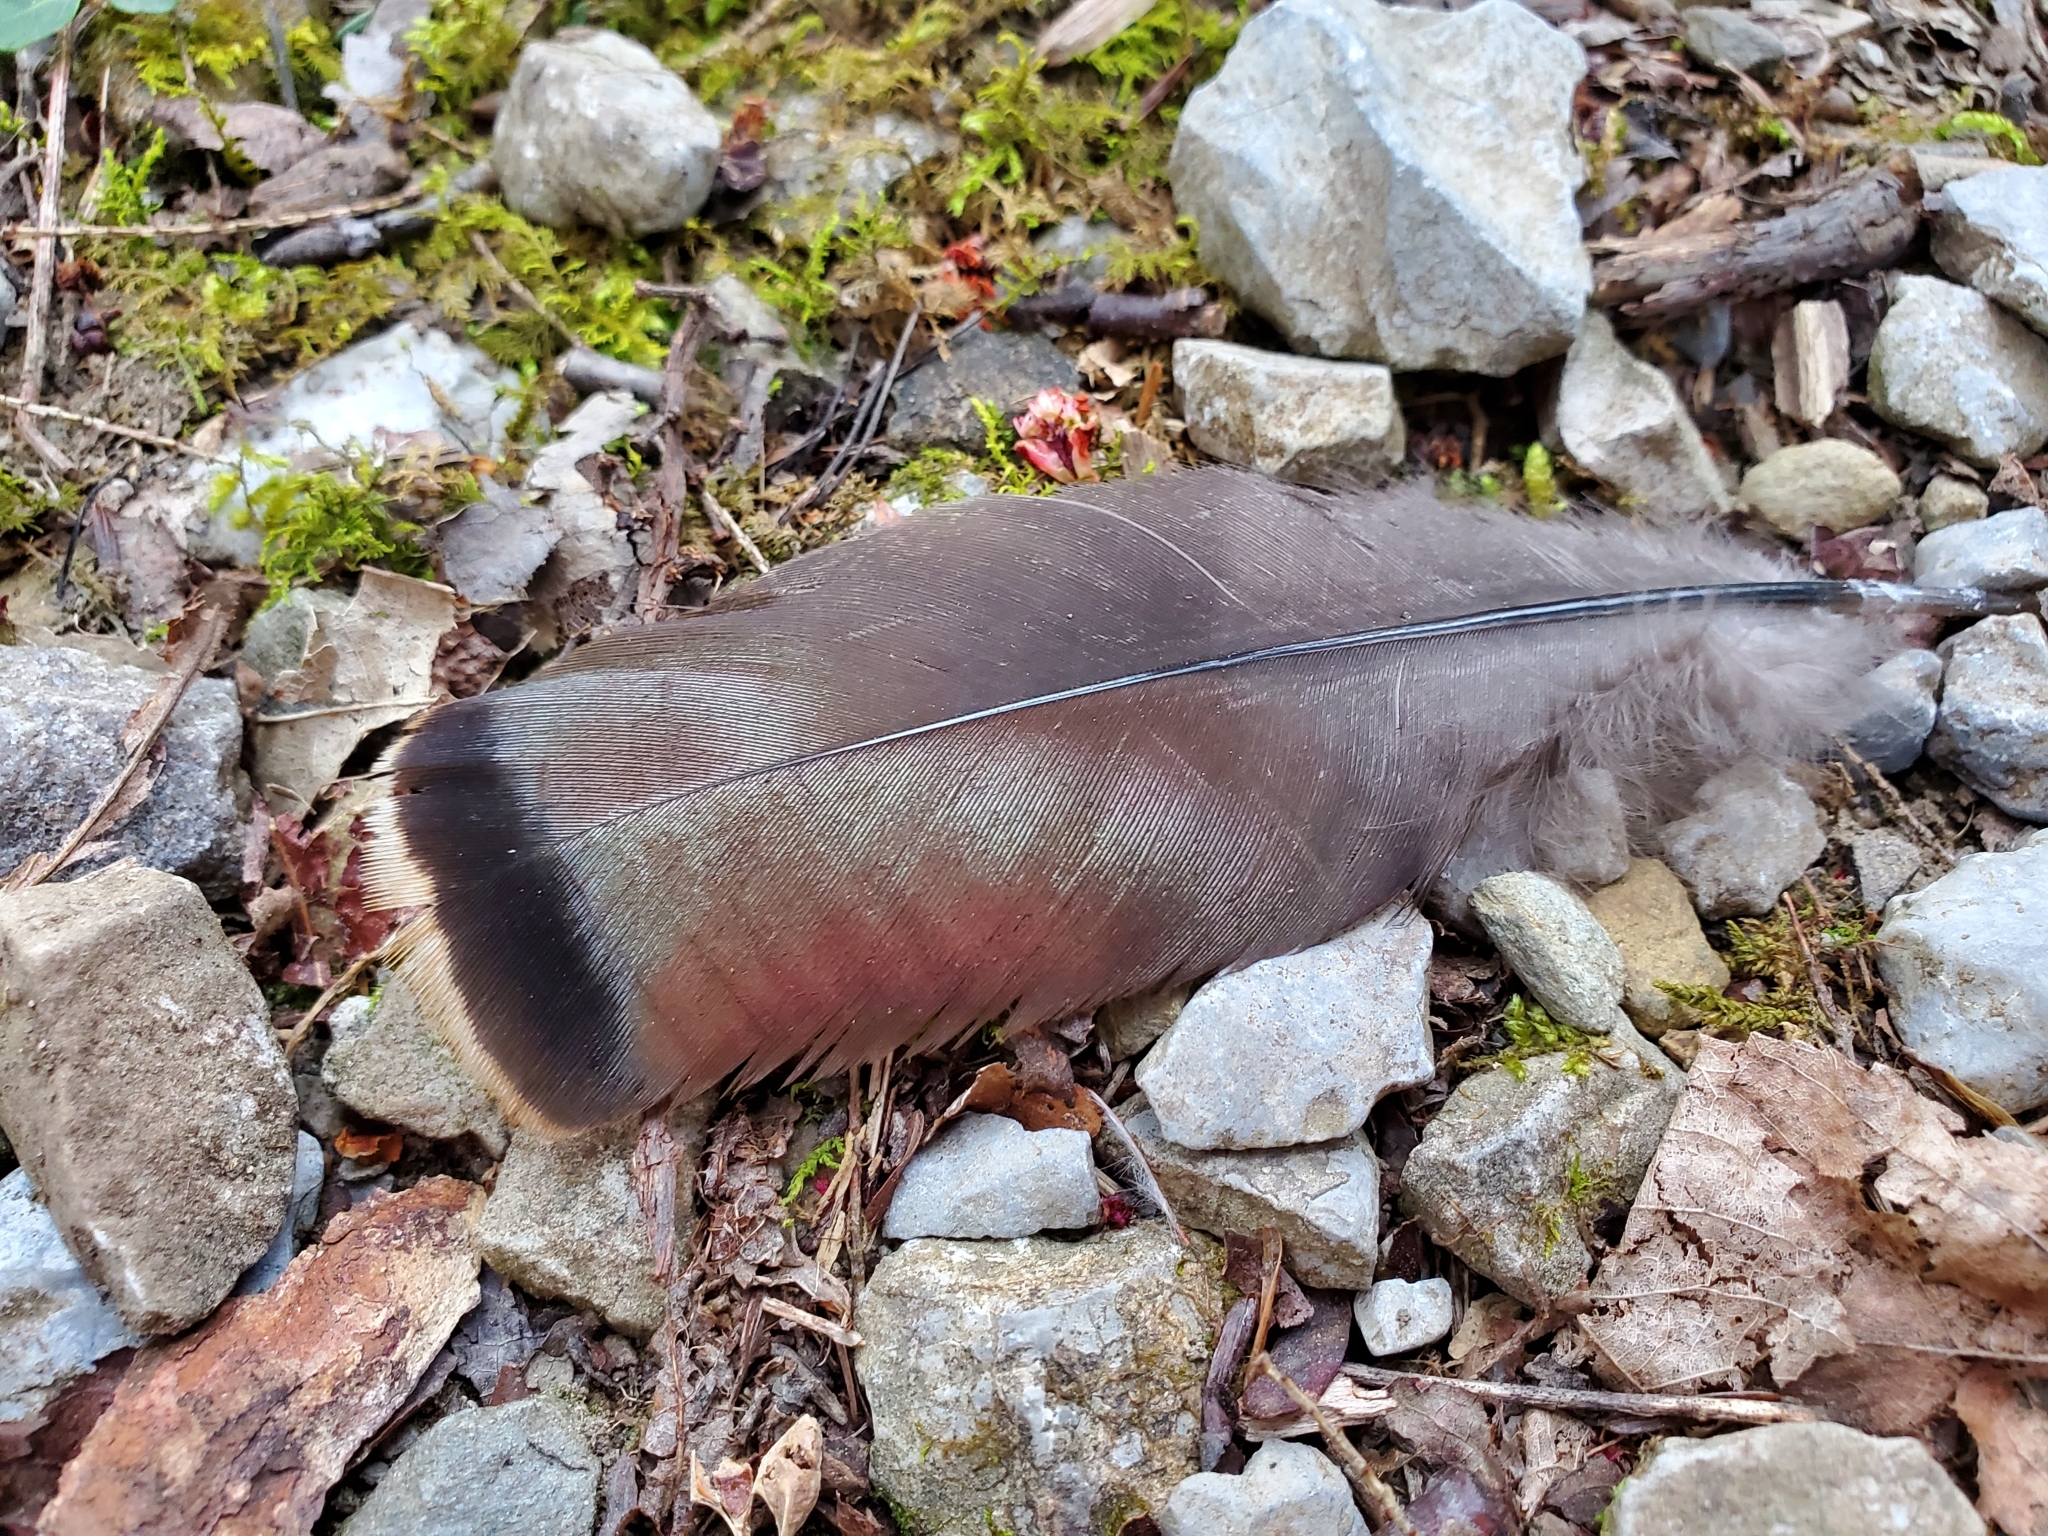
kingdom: Animalia
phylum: Chordata
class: Aves
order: Galliformes
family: Phasianidae
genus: Meleagris
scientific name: Meleagris gallopavo
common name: Wild turkey
